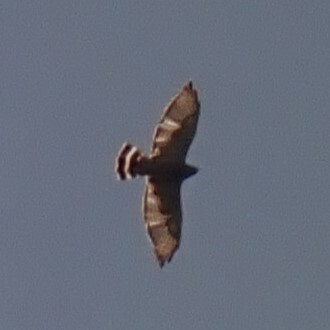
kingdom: Animalia
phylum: Chordata
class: Aves
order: Accipitriformes
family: Accipitridae
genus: Buteo
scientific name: Buteo platypterus
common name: Broad-winged hawk
